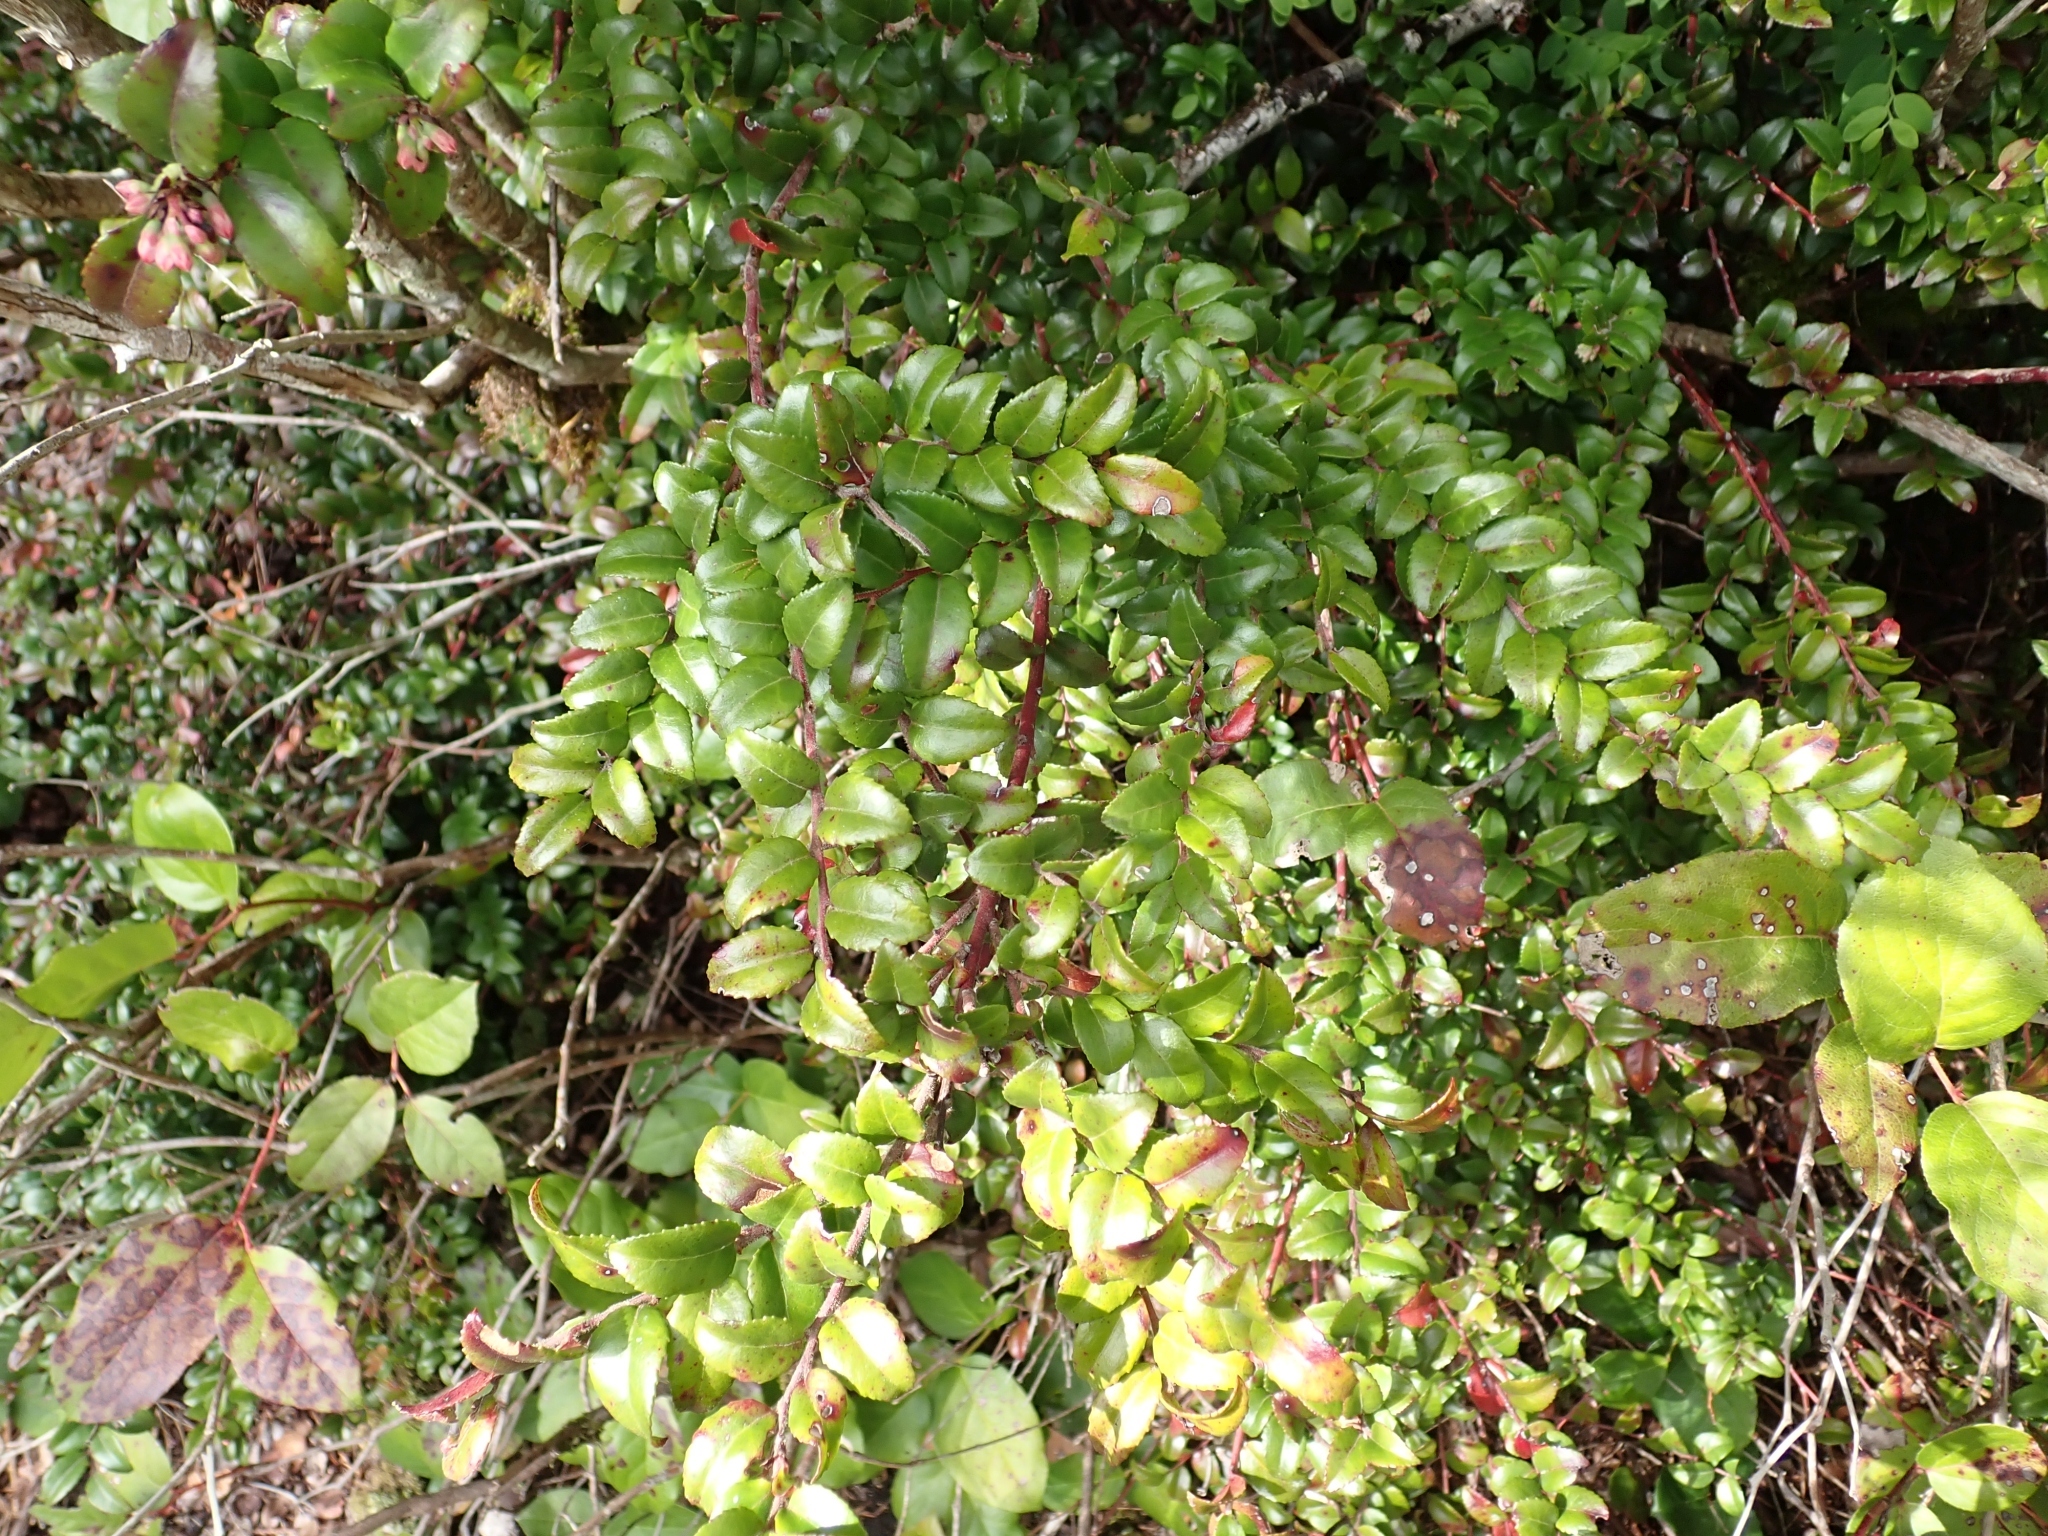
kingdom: Plantae
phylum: Tracheophyta
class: Magnoliopsida
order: Ericales
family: Ericaceae
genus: Vaccinium
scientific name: Vaccinium ovatum
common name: California-huckleberry
